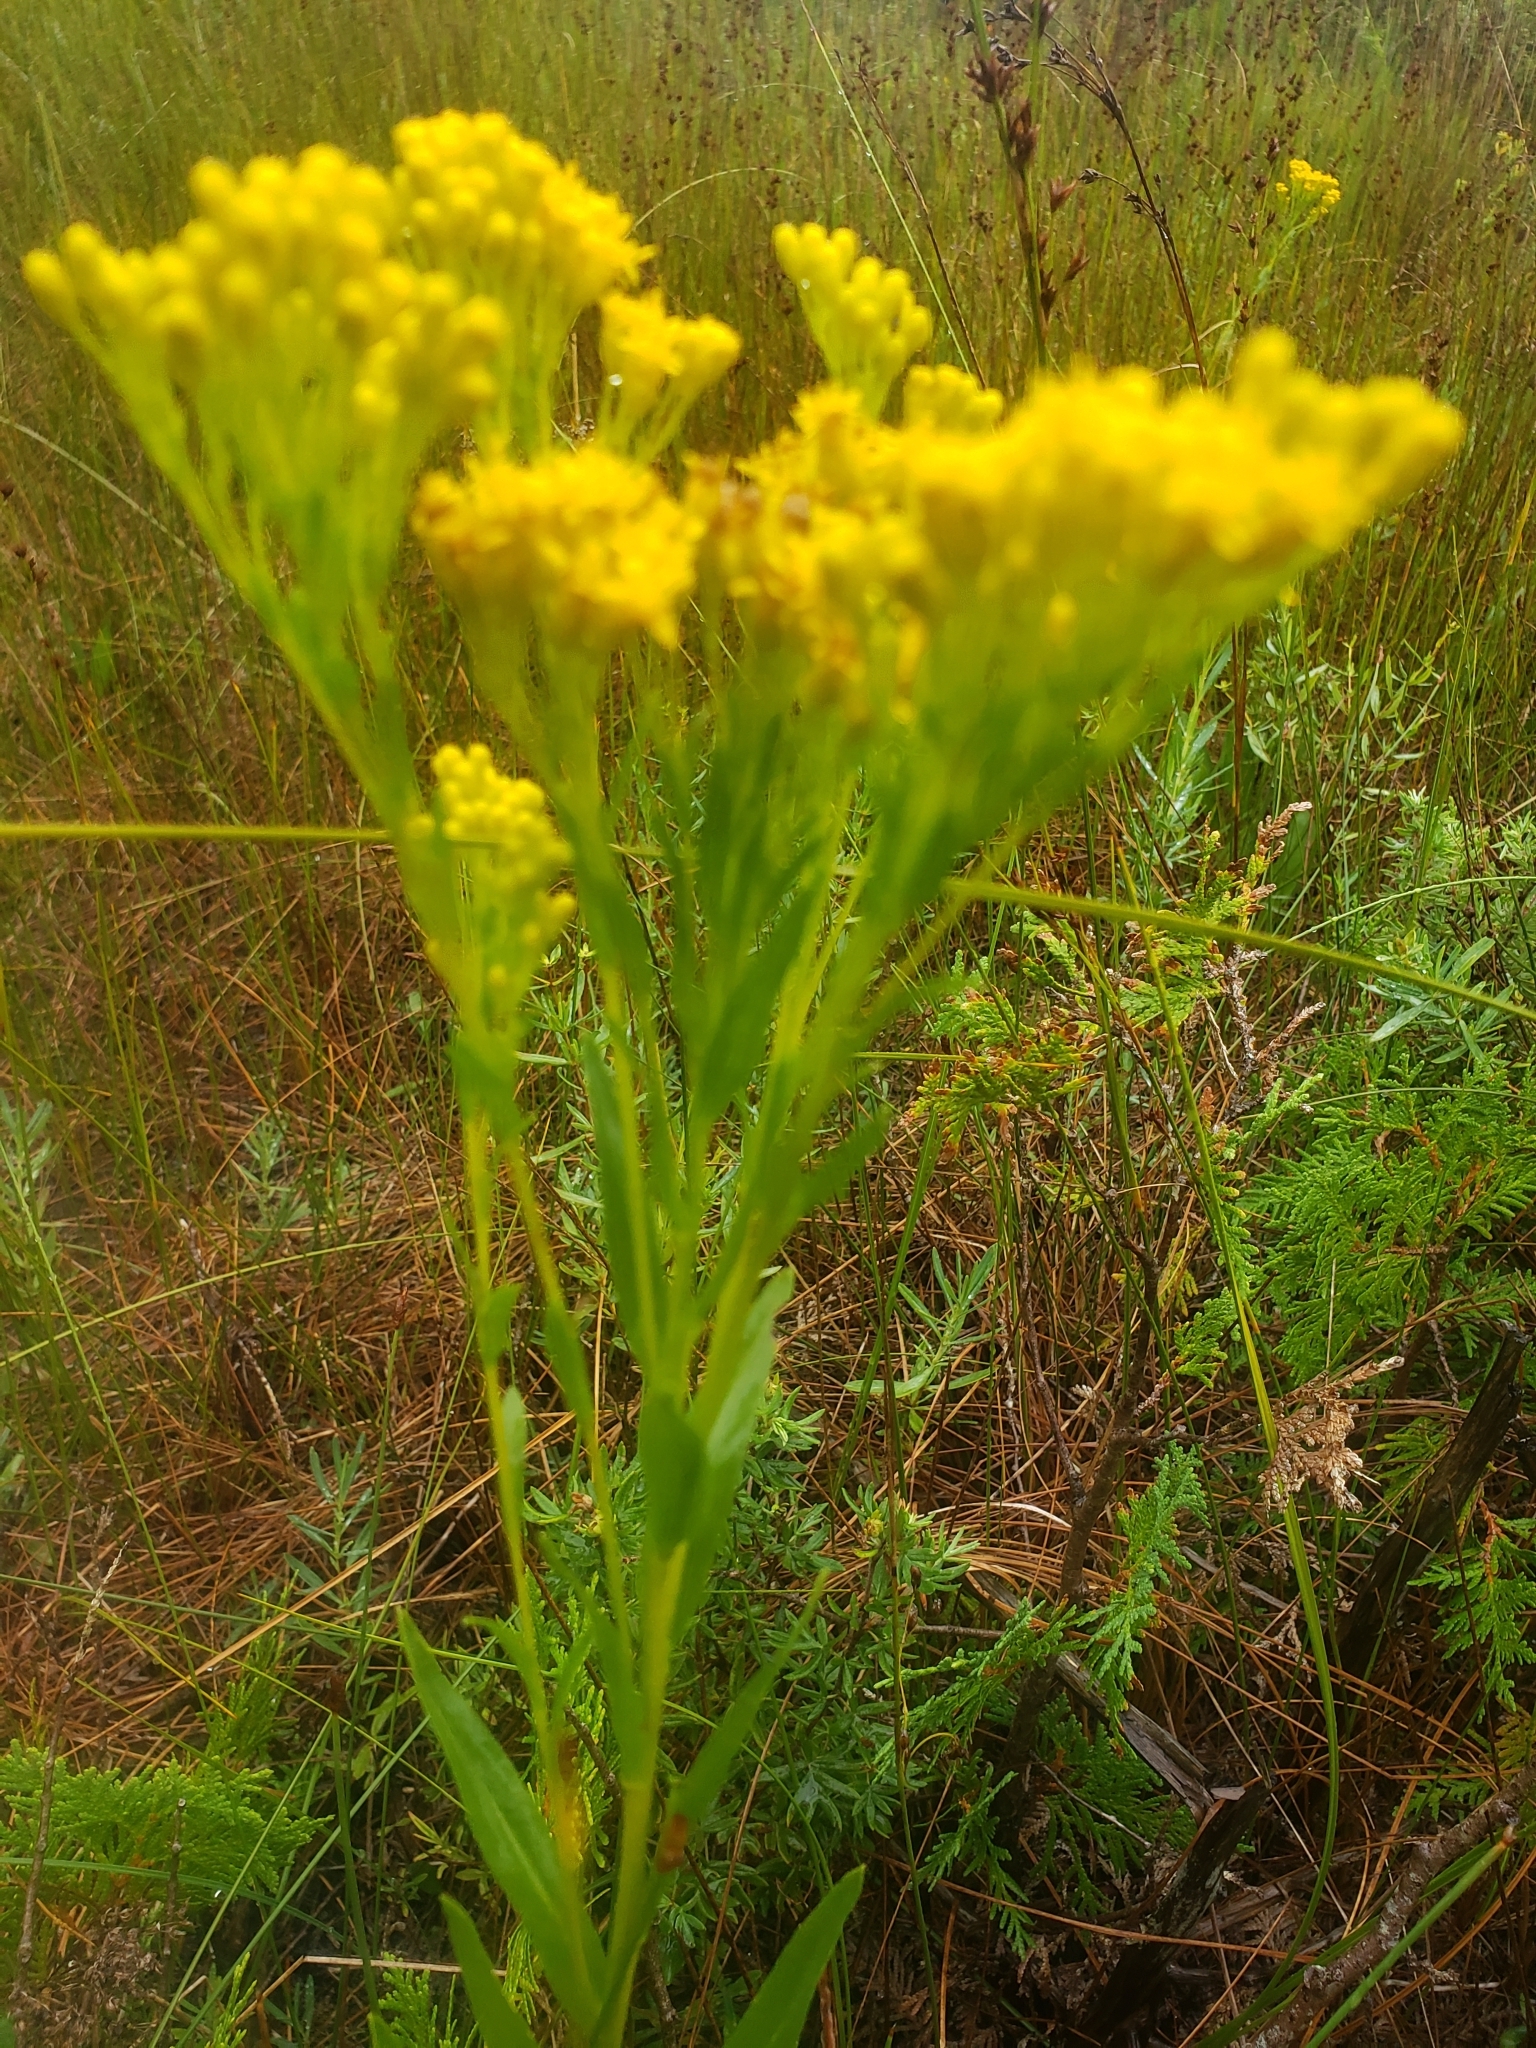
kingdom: Plantae
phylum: Tracheophyta
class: Magnoliopsida
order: Asterales
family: Asteraceae
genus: Solidago
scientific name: Solidago ohioensis
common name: Ohio goldenrod
